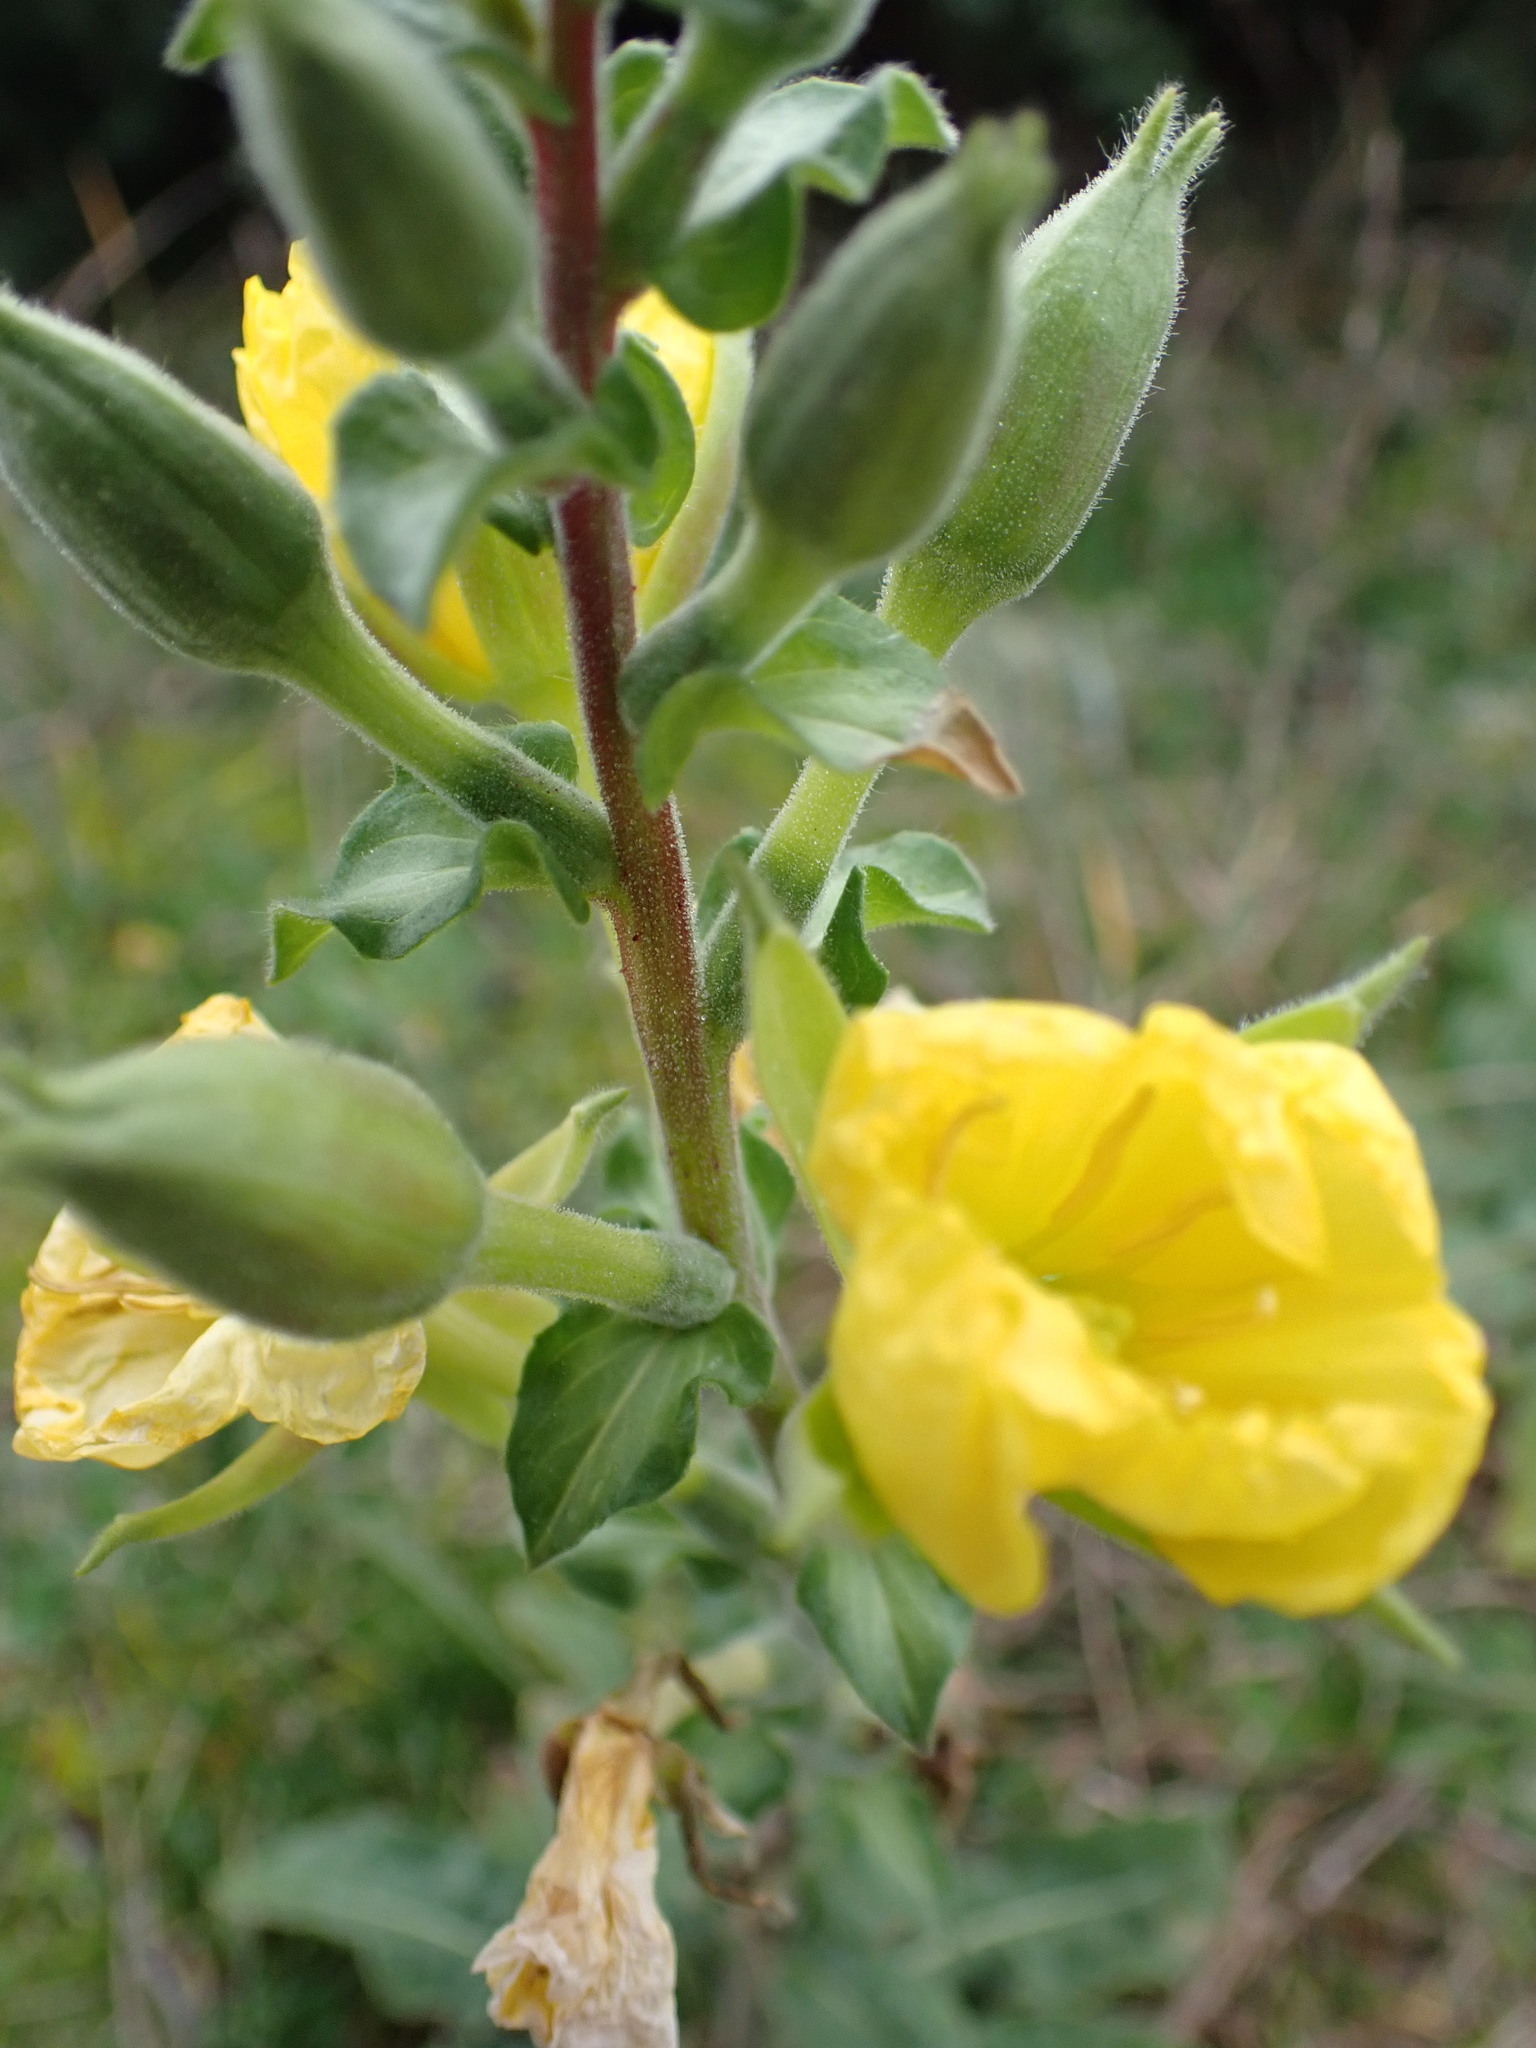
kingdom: Plantae
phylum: Tracheophyta
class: Magnoliopsida
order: Myrtales
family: Onagraceae
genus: Oenothera
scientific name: Oenothera biennis
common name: Common evening-primrose
